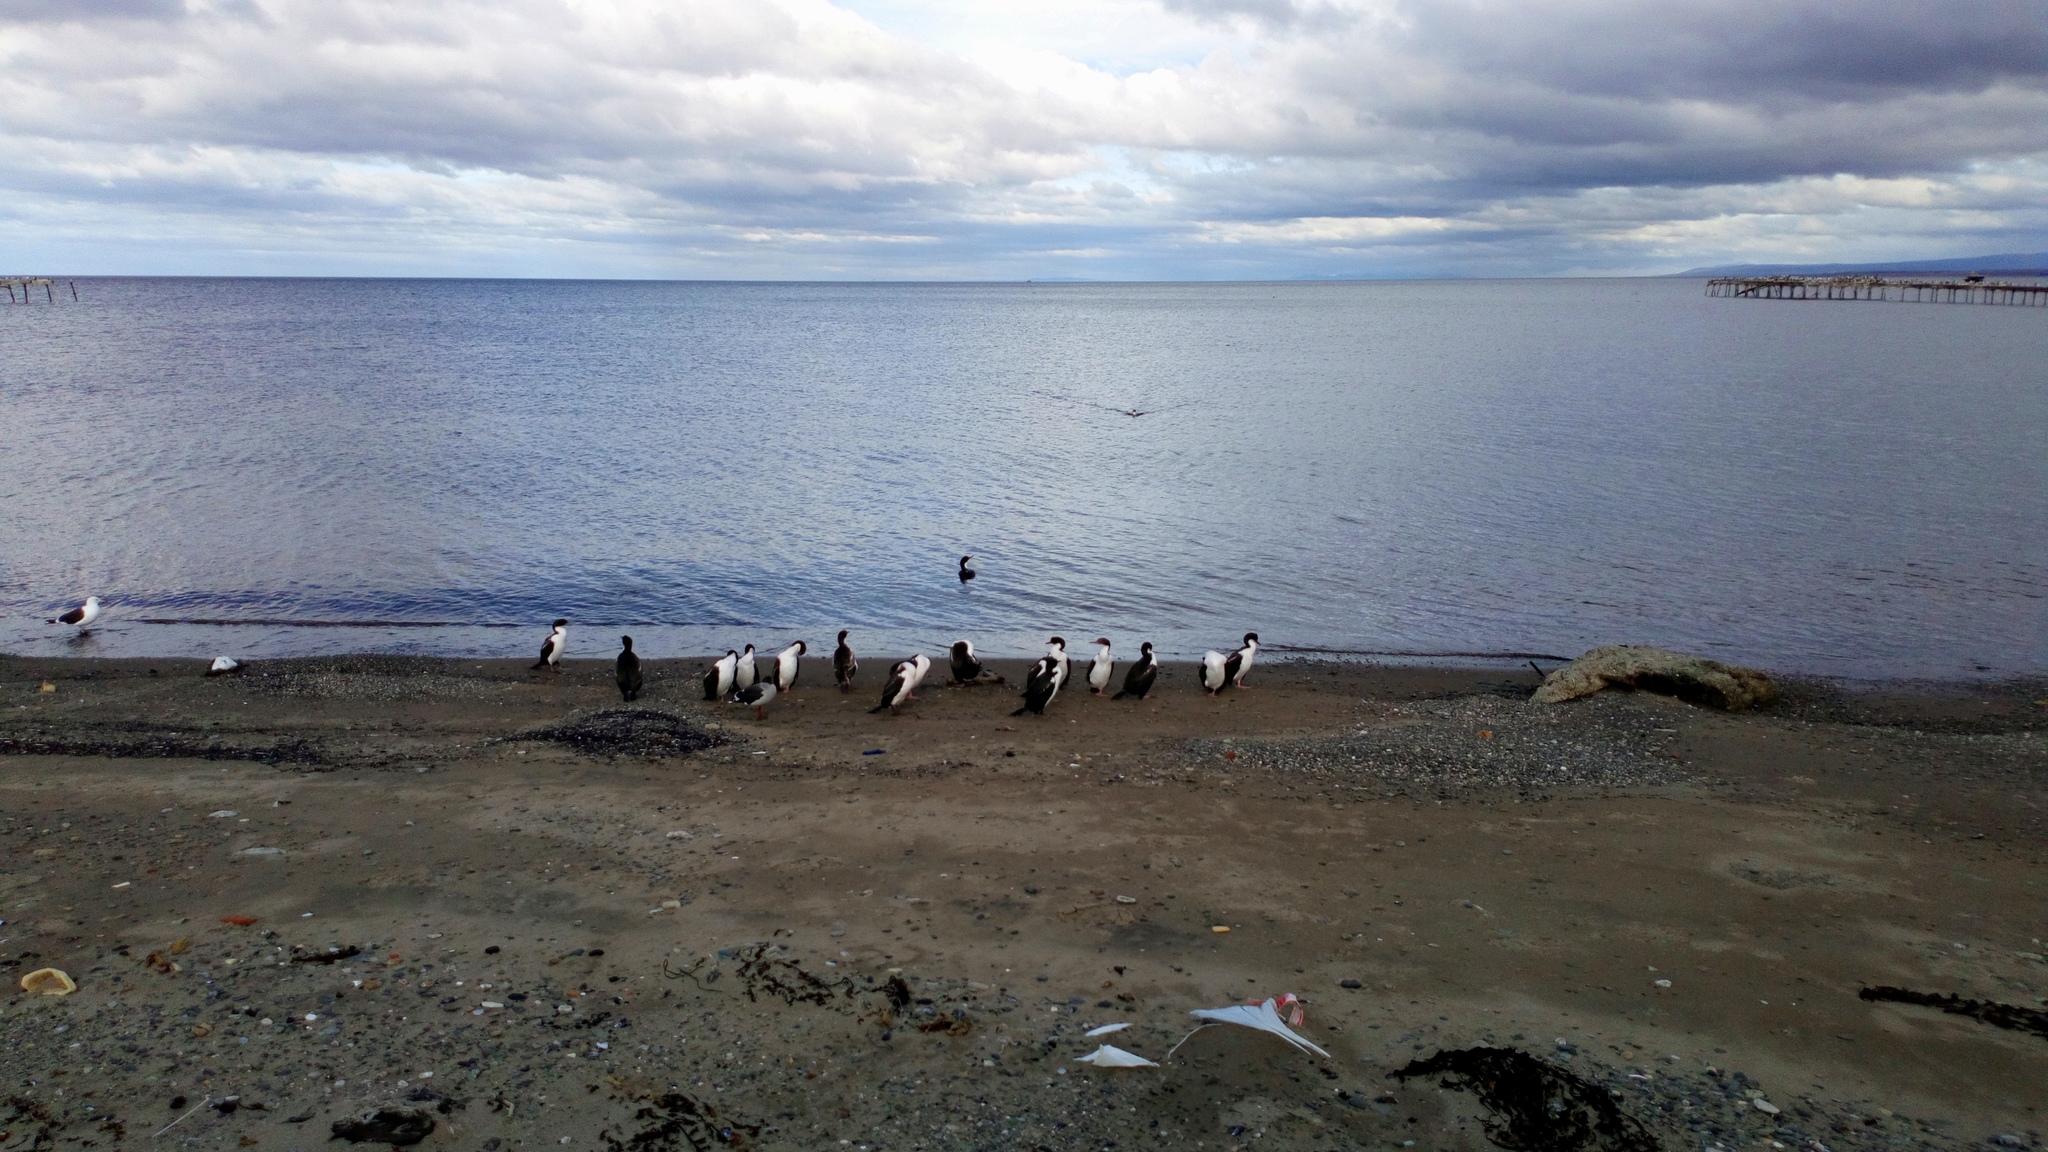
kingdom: Animalia
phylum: Chordata
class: Aves
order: Suliformes
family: Phalacrocoracidae
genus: Leucocarbo
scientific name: Leucocarbo atriceps
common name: Imperial shag
